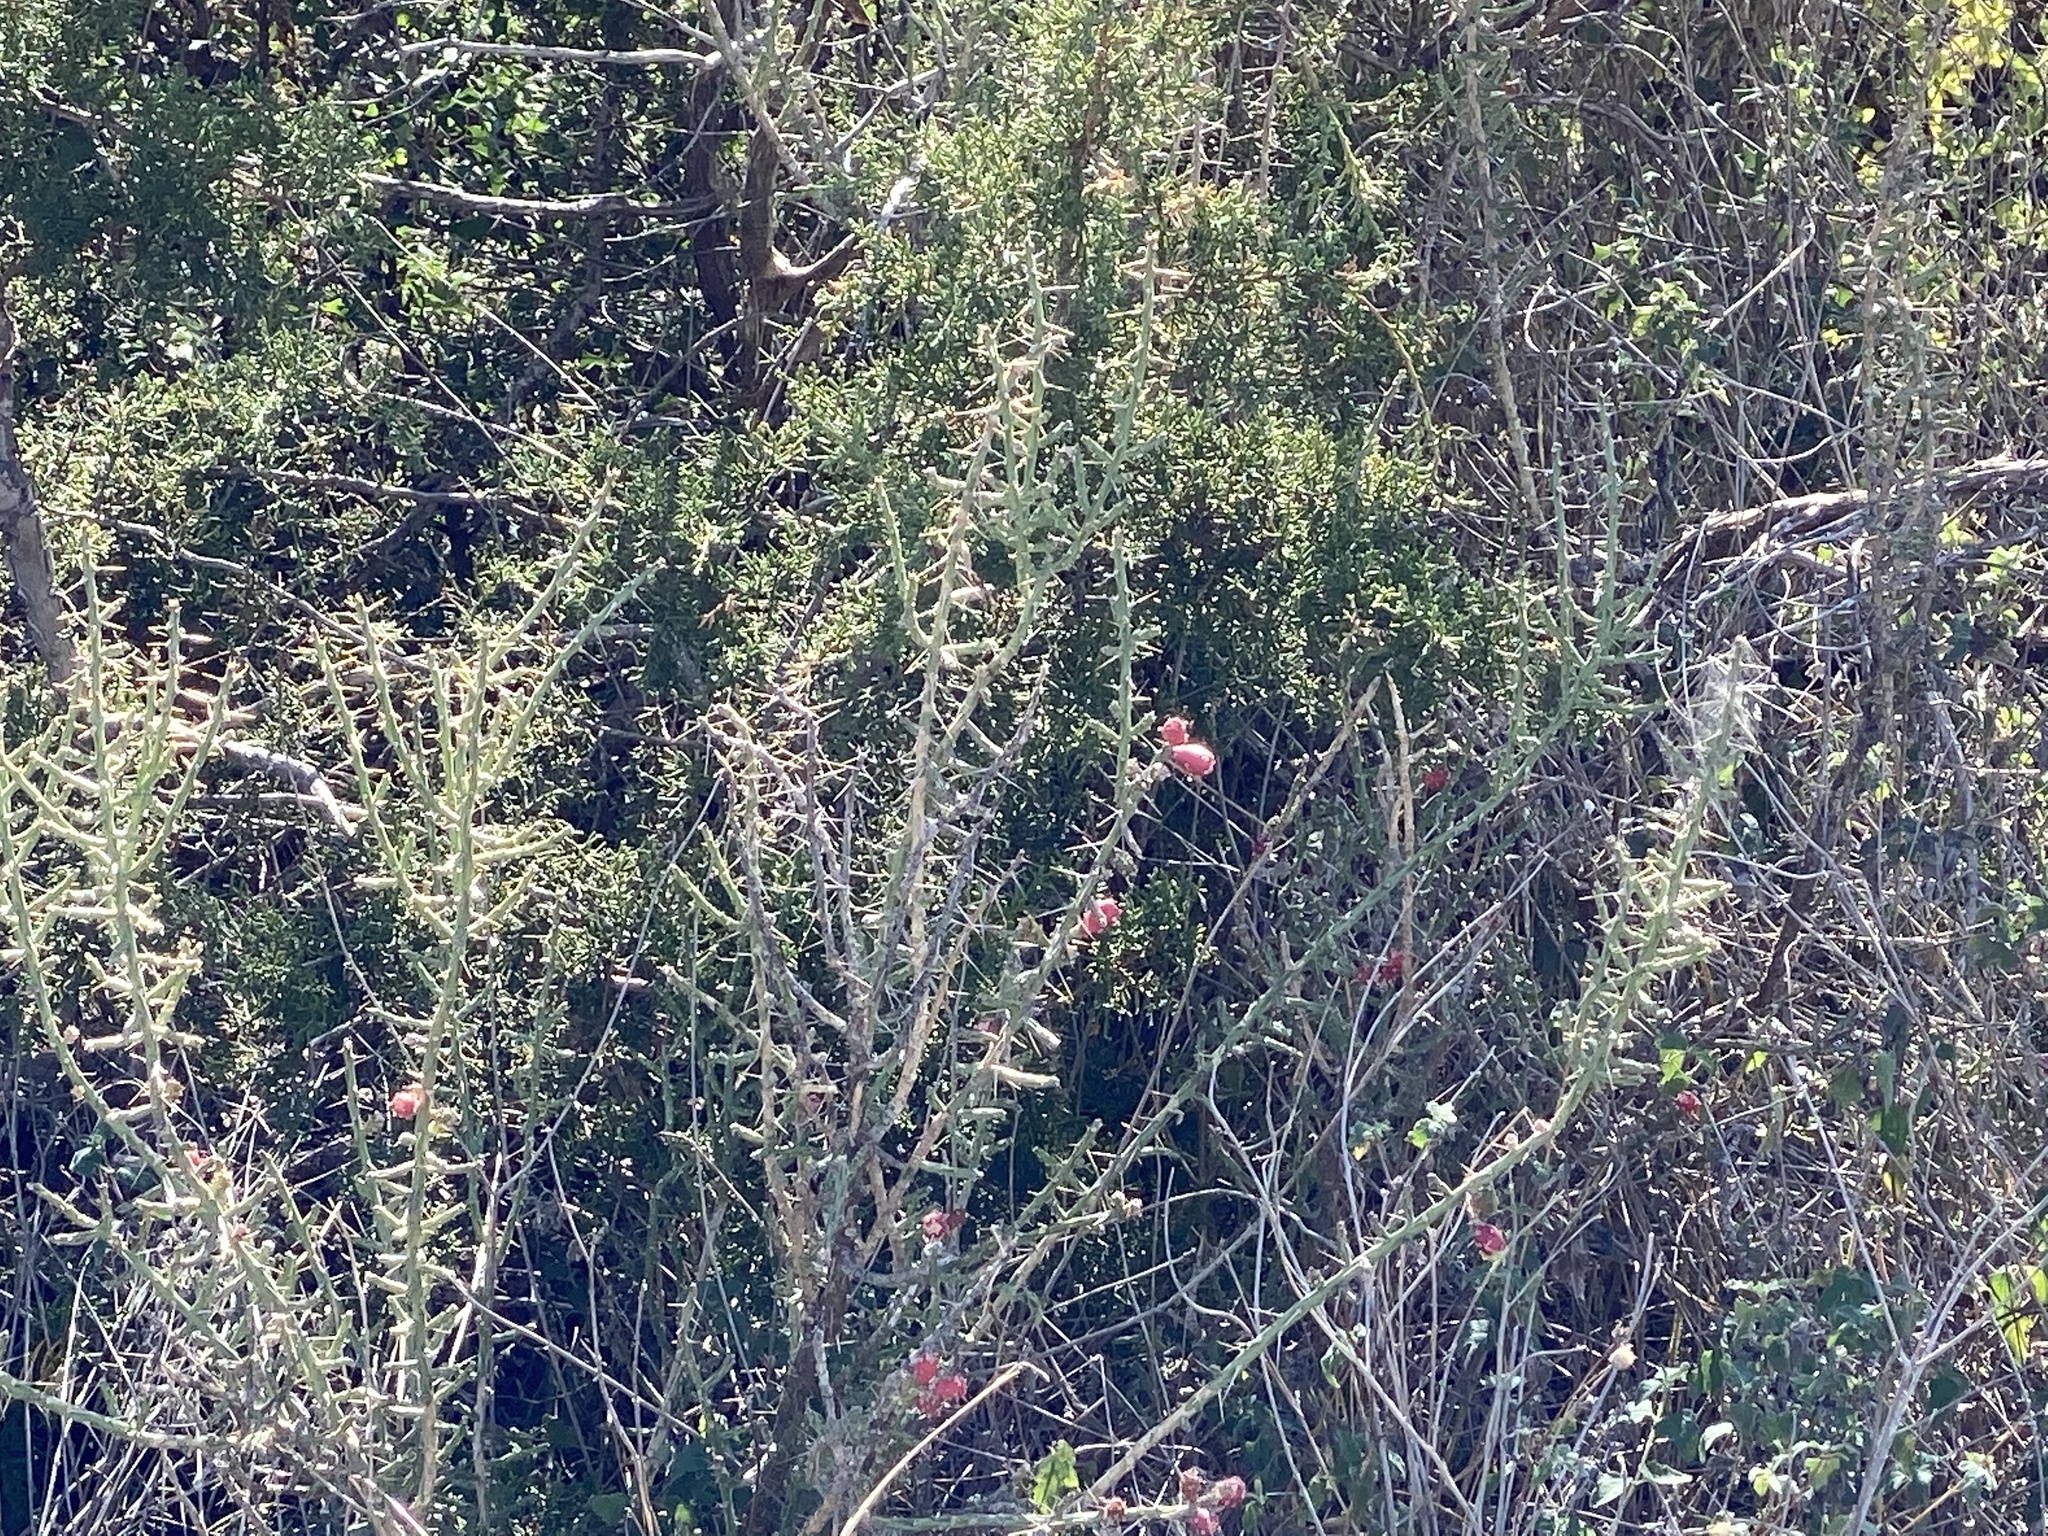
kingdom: Plantae
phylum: Tracheophyta
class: Magnoliopsida
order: Caryophyllales
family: Cactaceae
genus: Cylindropuntia
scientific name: Cylindropuntia leptocaulis
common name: Christmas cactus
